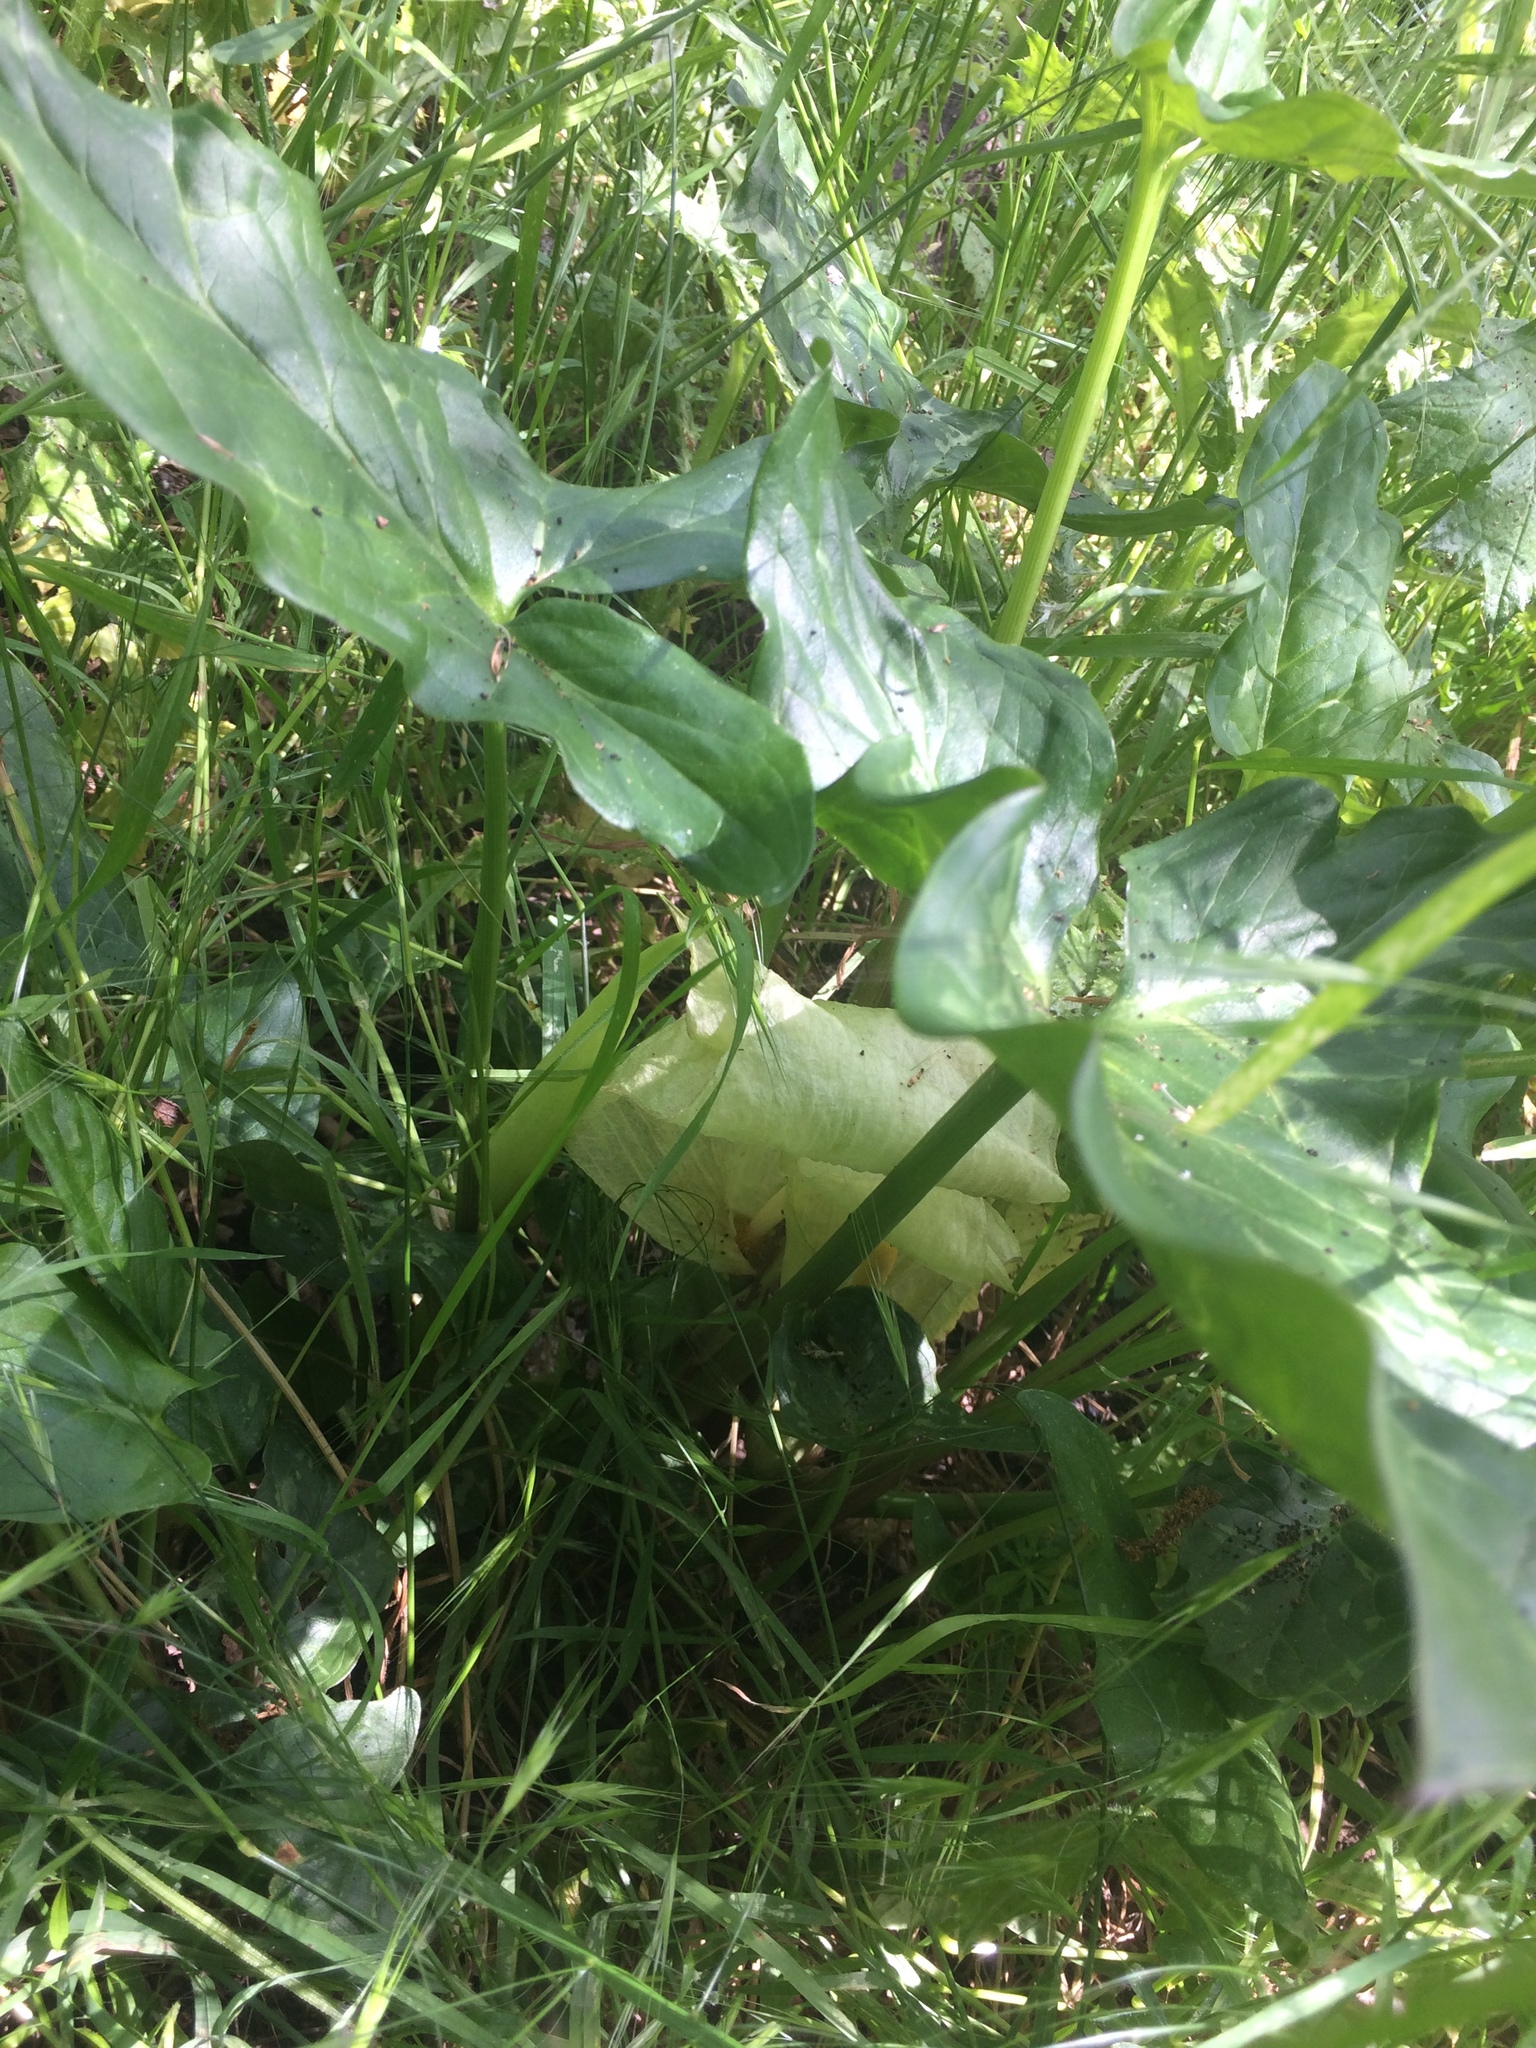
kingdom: Plantae
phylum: Tracheophyta
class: Liliopsida
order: Alismatales
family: Araceae
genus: Arum
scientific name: Arum italicum
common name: Italian lords-and-ladies
